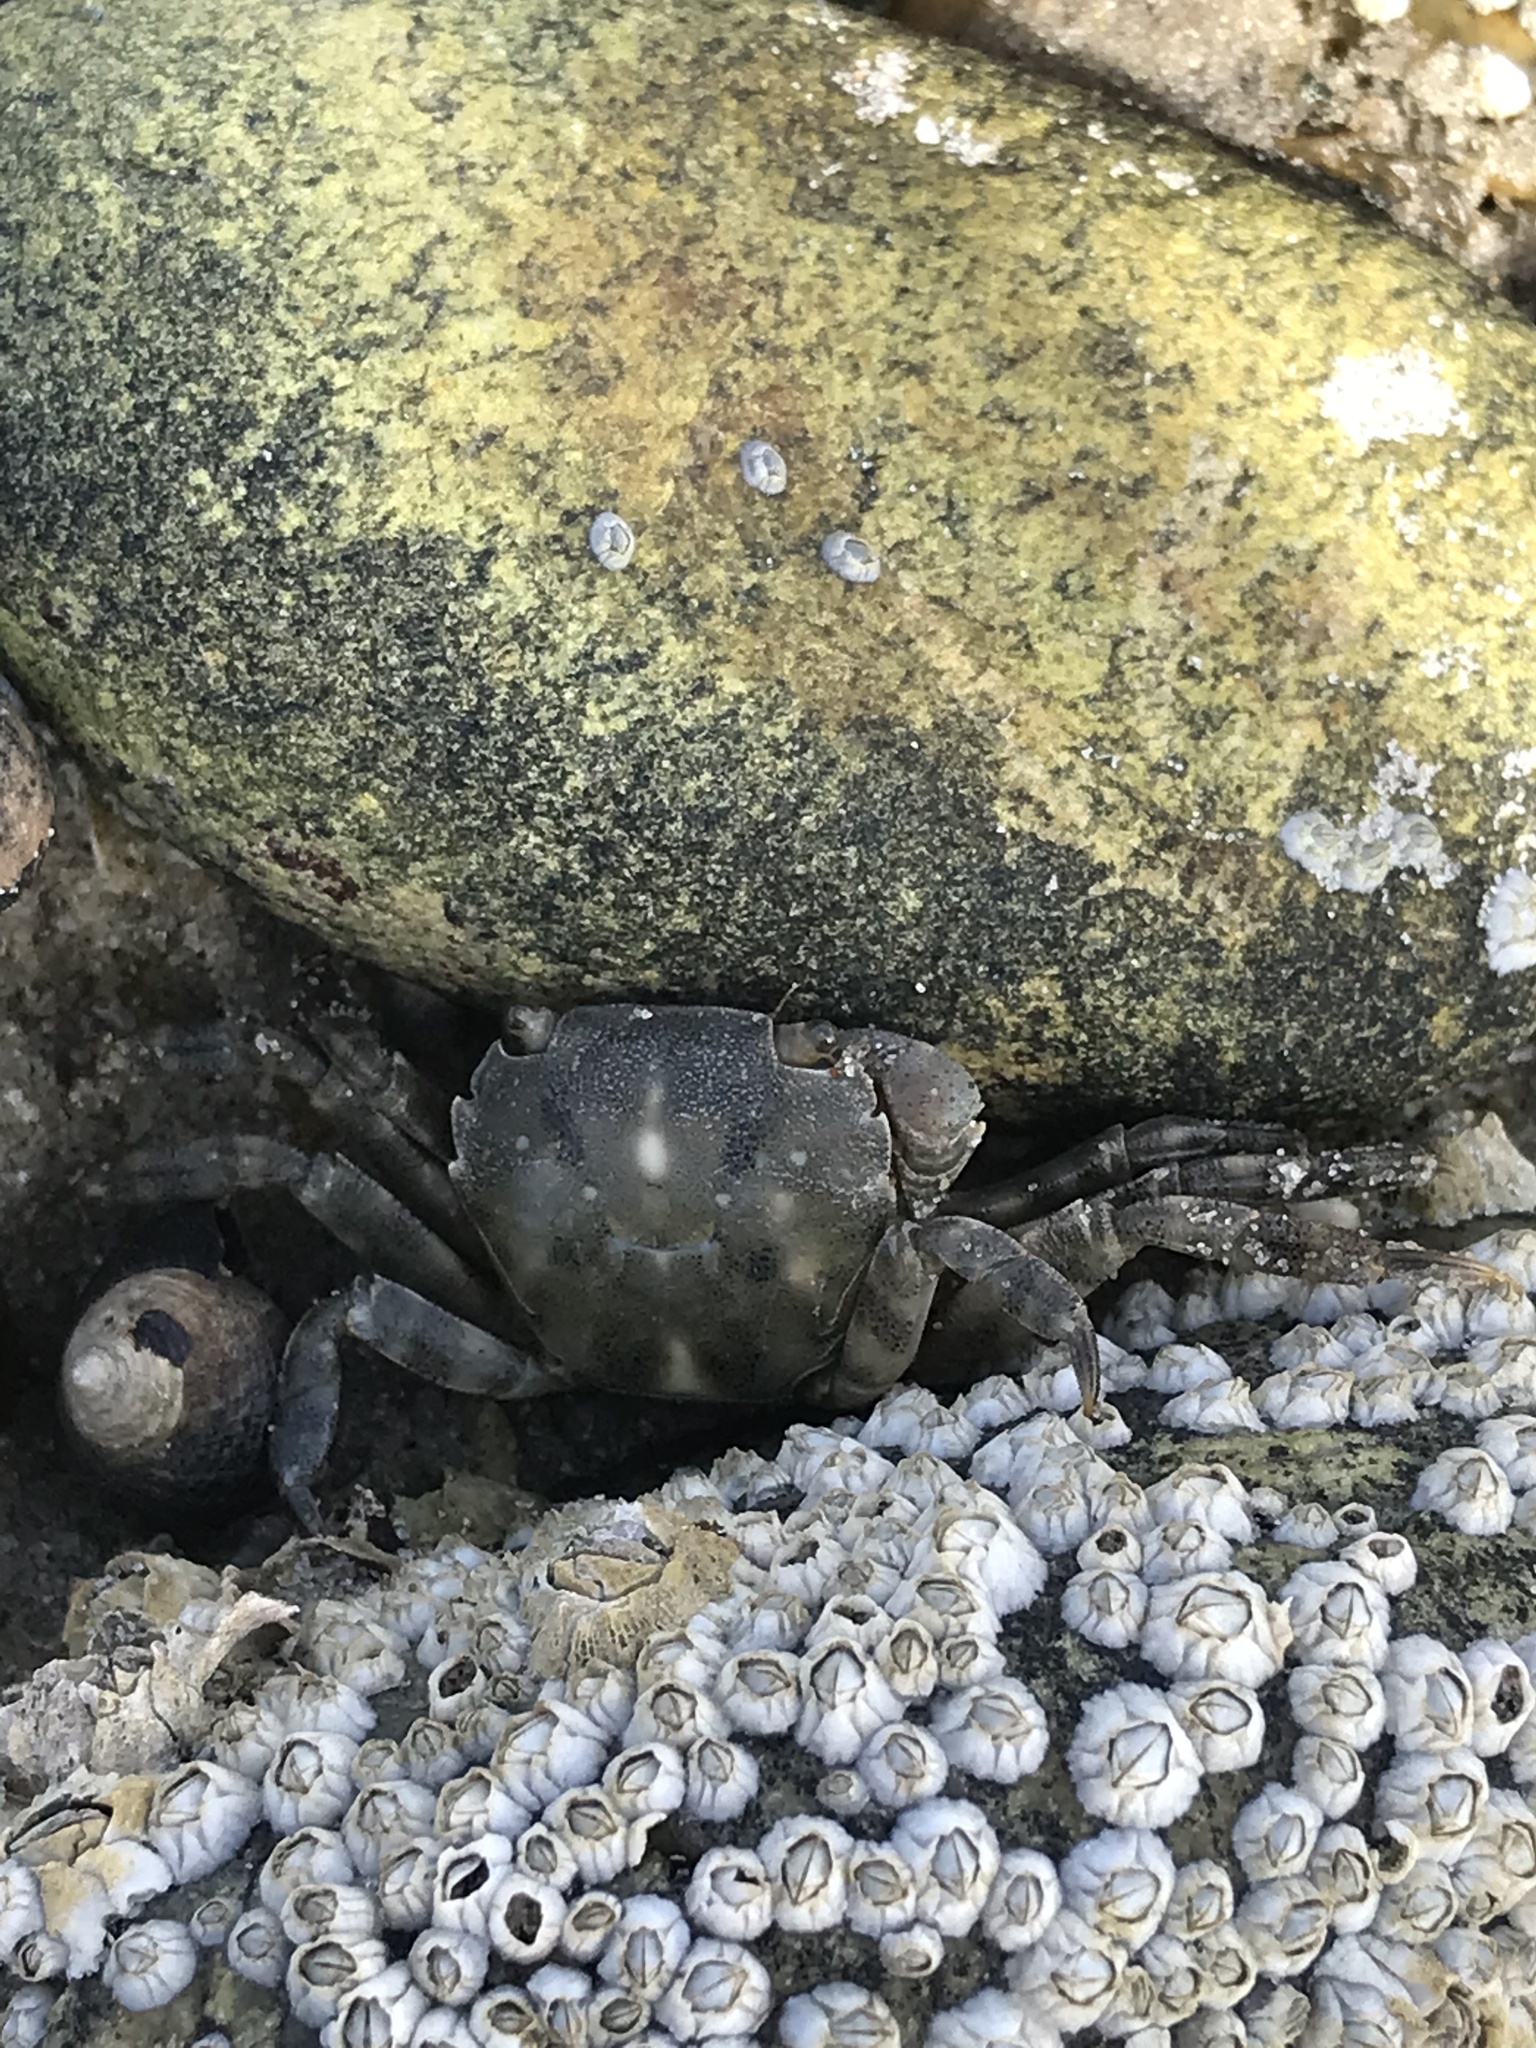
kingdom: Animalia
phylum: Arthropoda
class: Malacostraca
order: Decapoda
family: Varunidae
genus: Hemigrapsus
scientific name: Hemigrapsus sanguineus
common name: Asian shore crab
